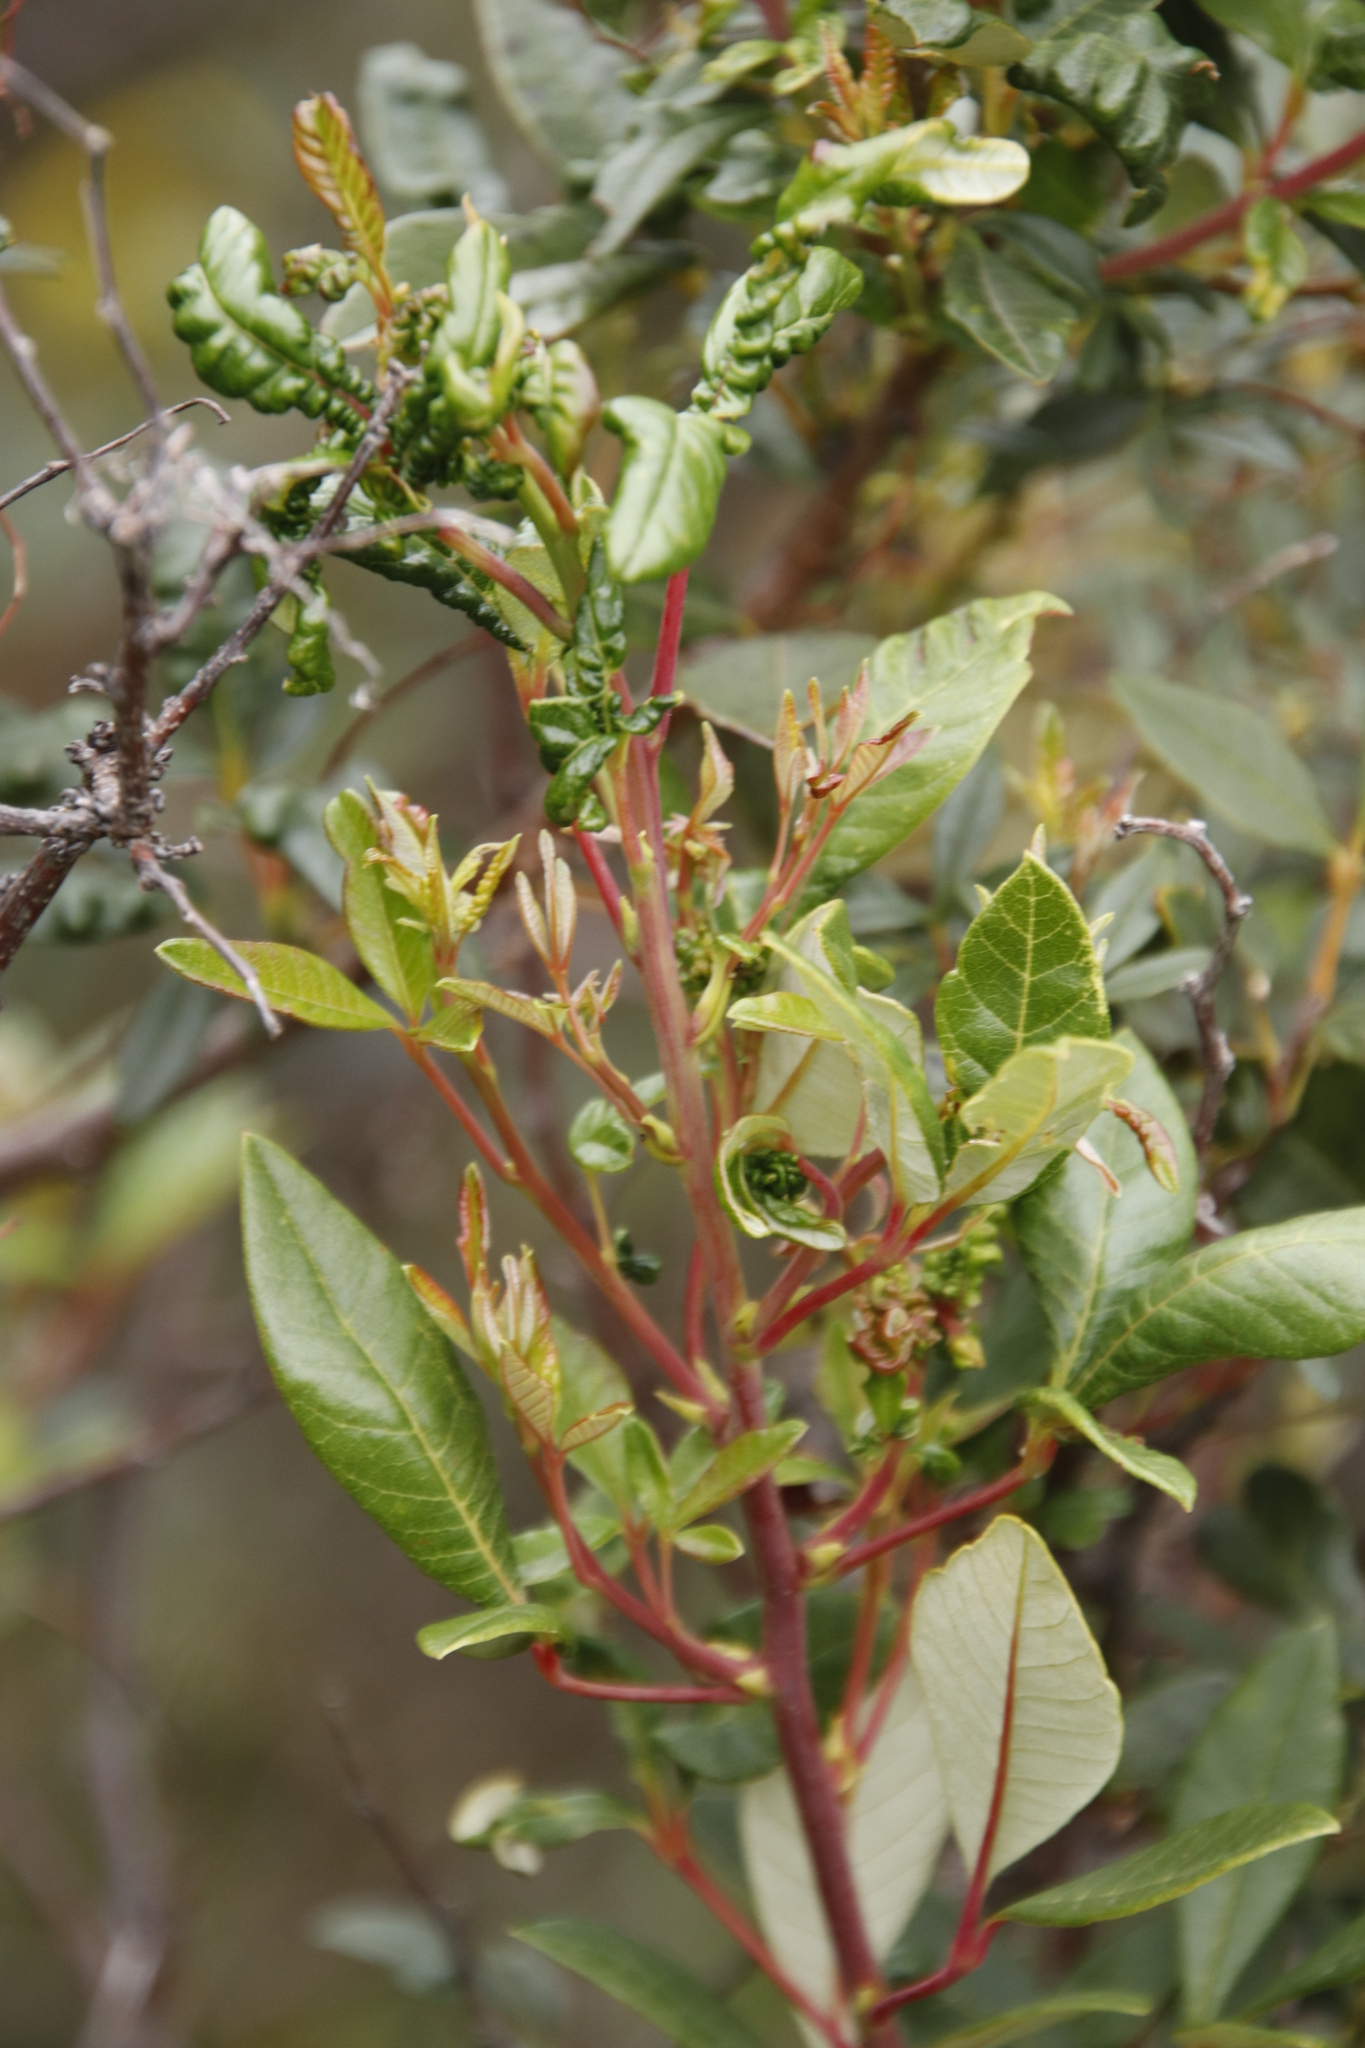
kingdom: Plantae
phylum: Tracheophyta
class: Magnoliopsida
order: Sapindales
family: Anacardiaceae
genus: Searsia
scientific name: Searsia tomentosa
